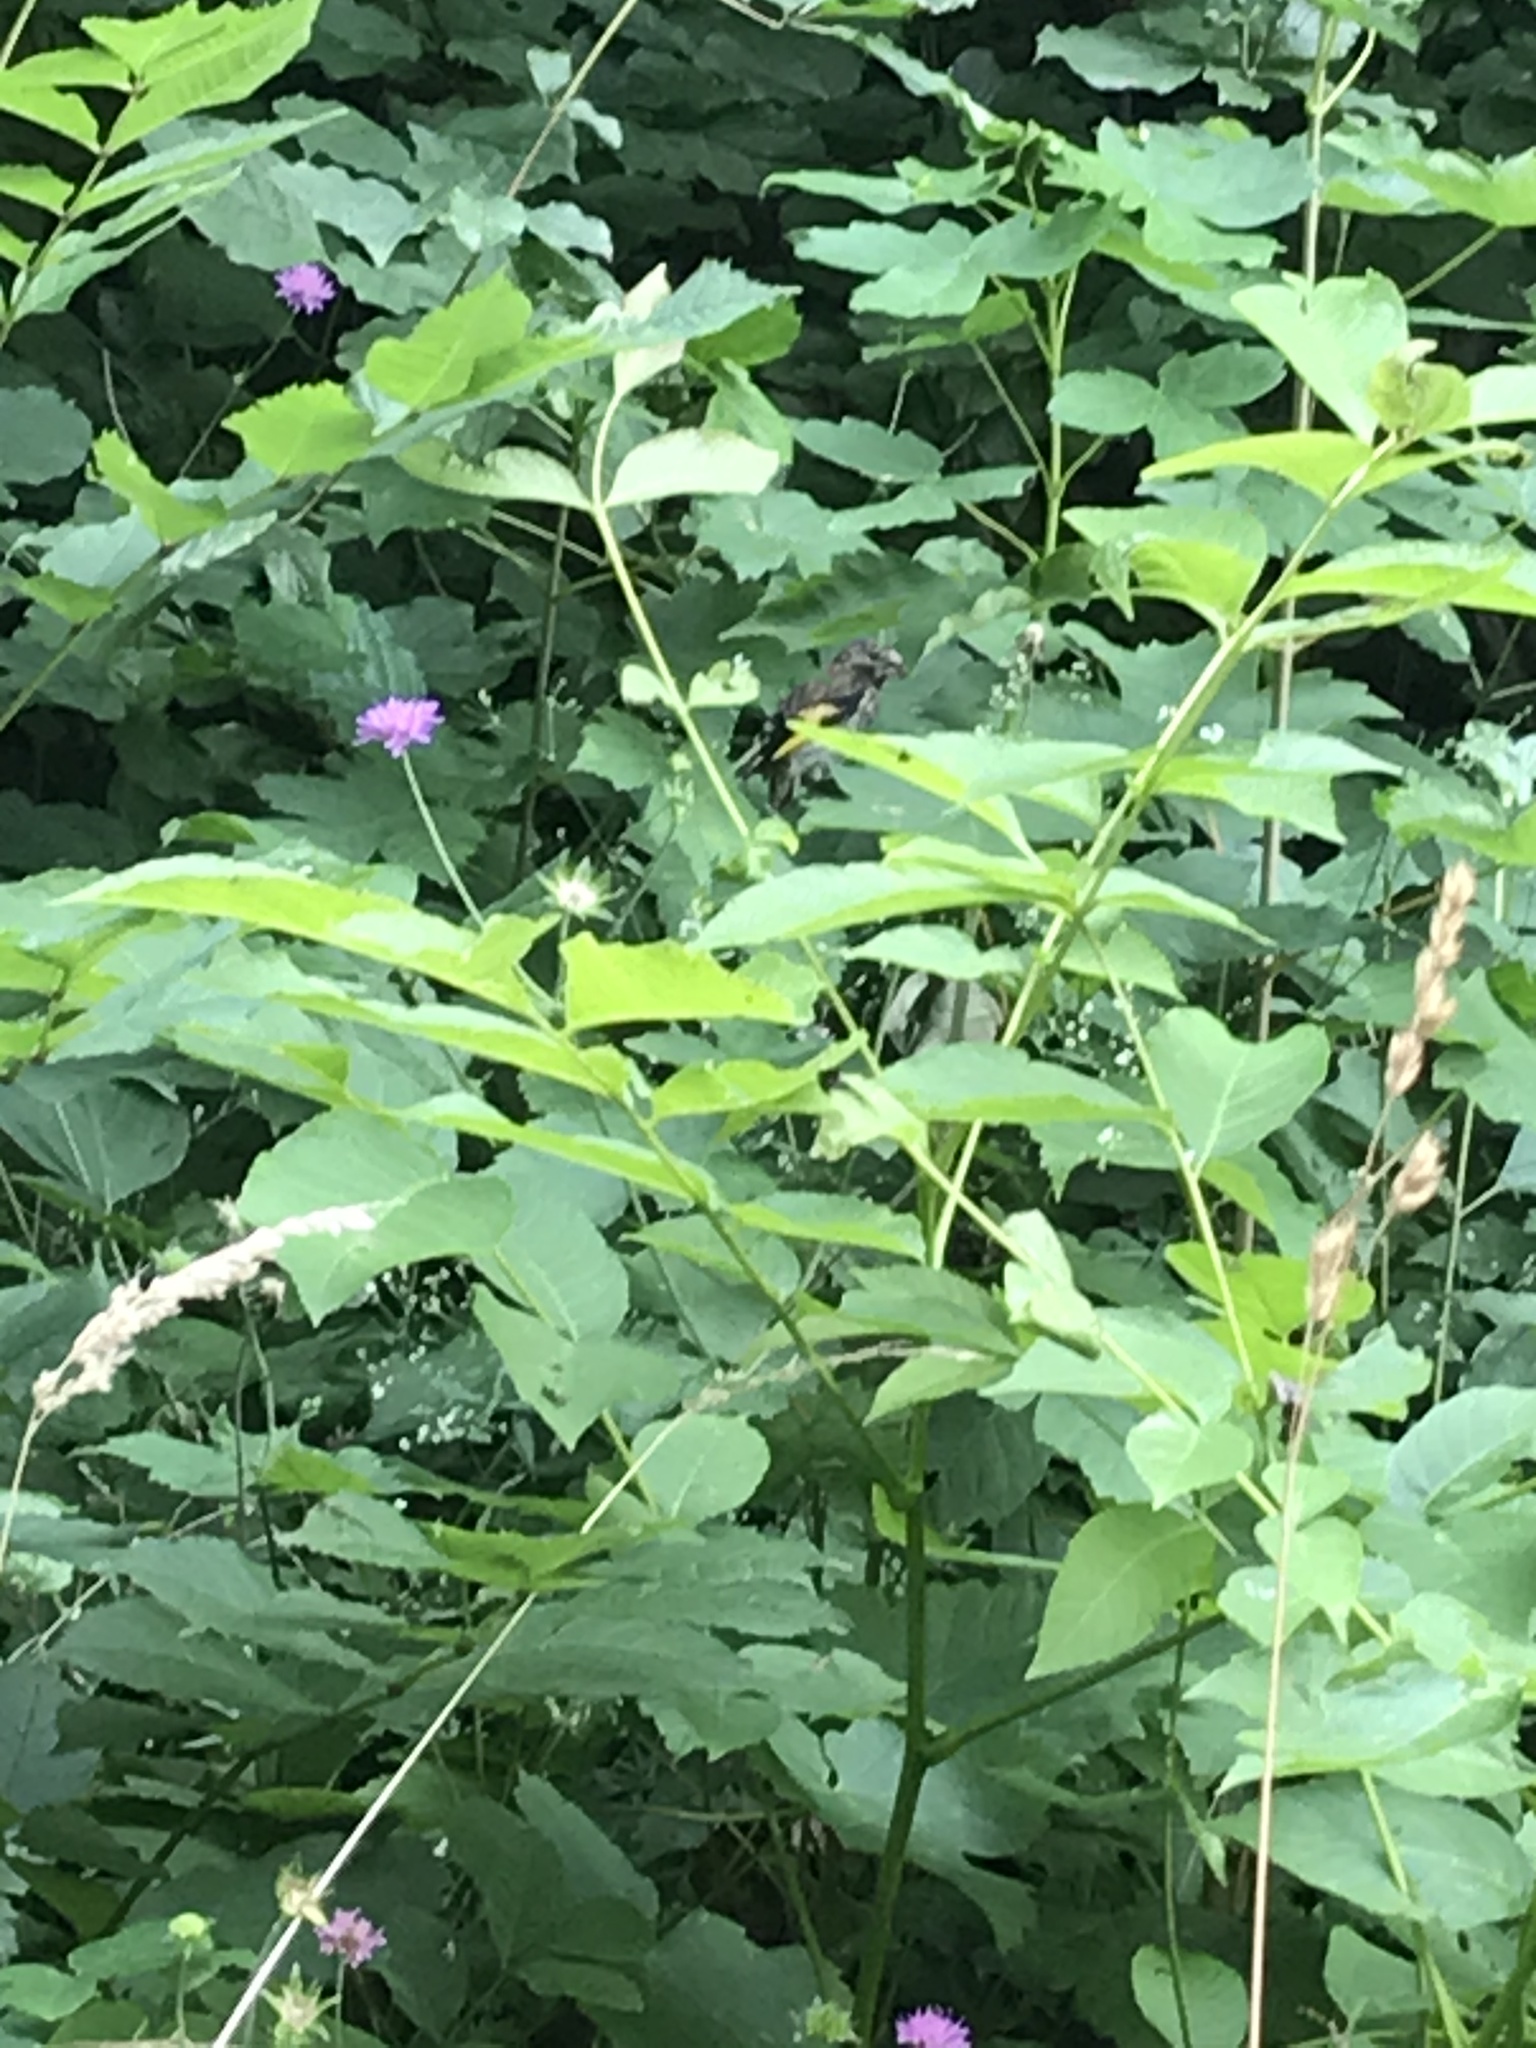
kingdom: Animalia
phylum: Chordata
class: Aves
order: Passeriformes
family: Fringillidae
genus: Carduelis
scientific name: Carduelis carduelis
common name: European goldfinch
